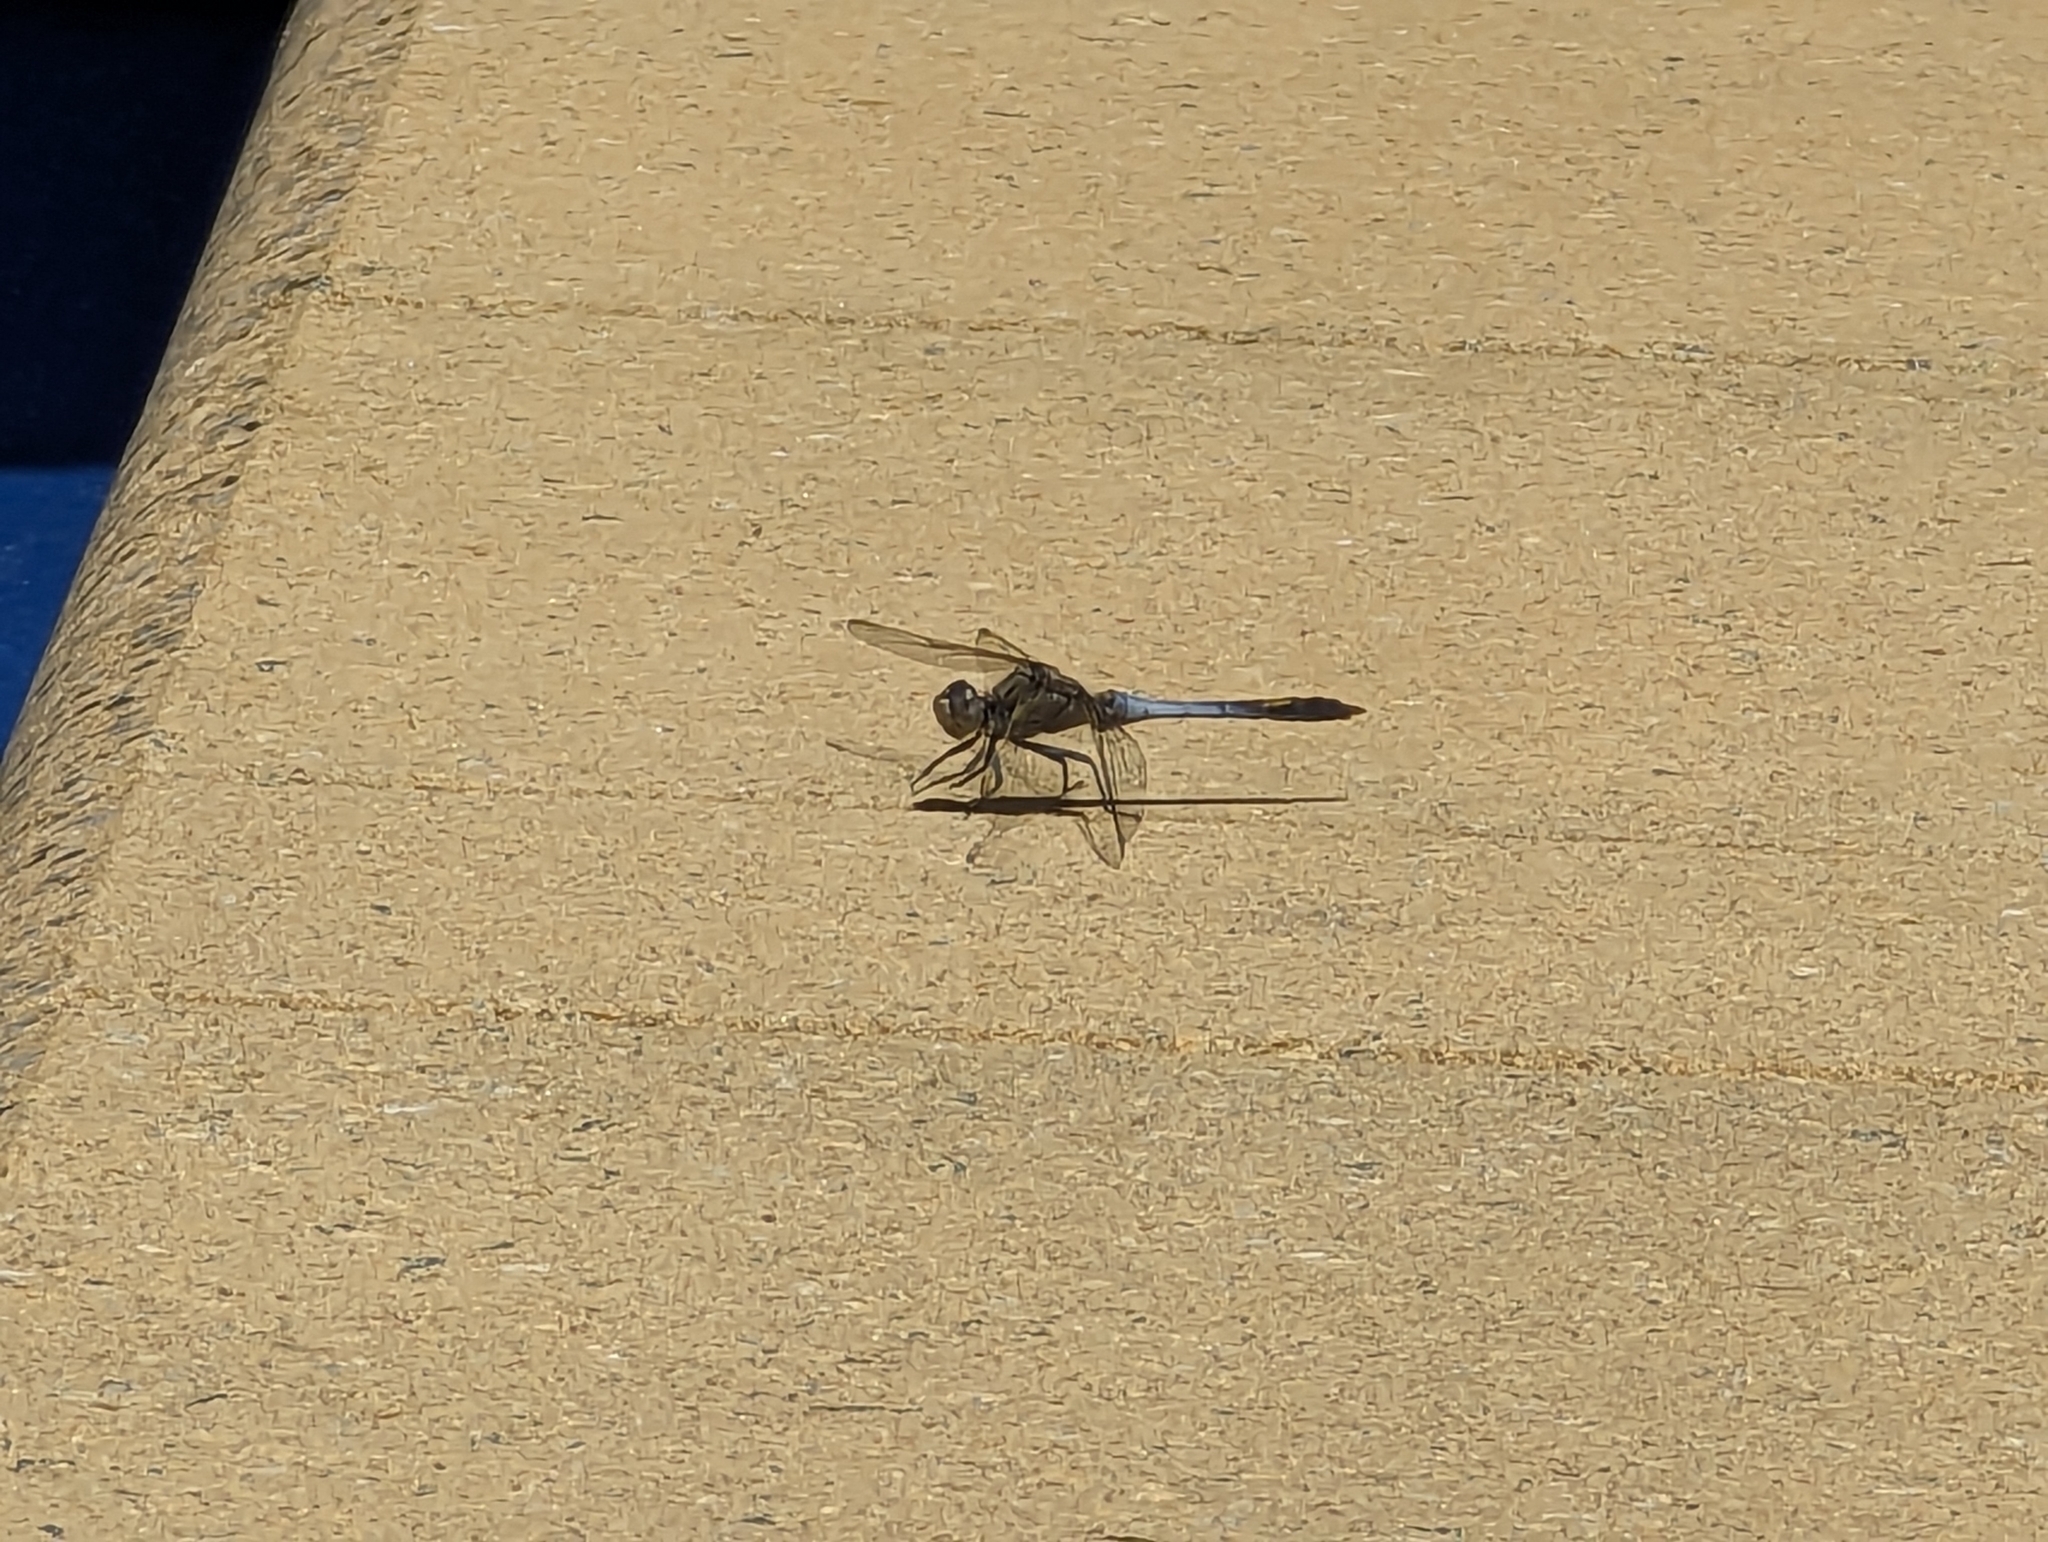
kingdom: Animalia
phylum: Arthropoda
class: Insecta
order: Odonata
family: Libellulidae
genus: Orthetrum
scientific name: Orthetrum caledonicum
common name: Blue skimmer
